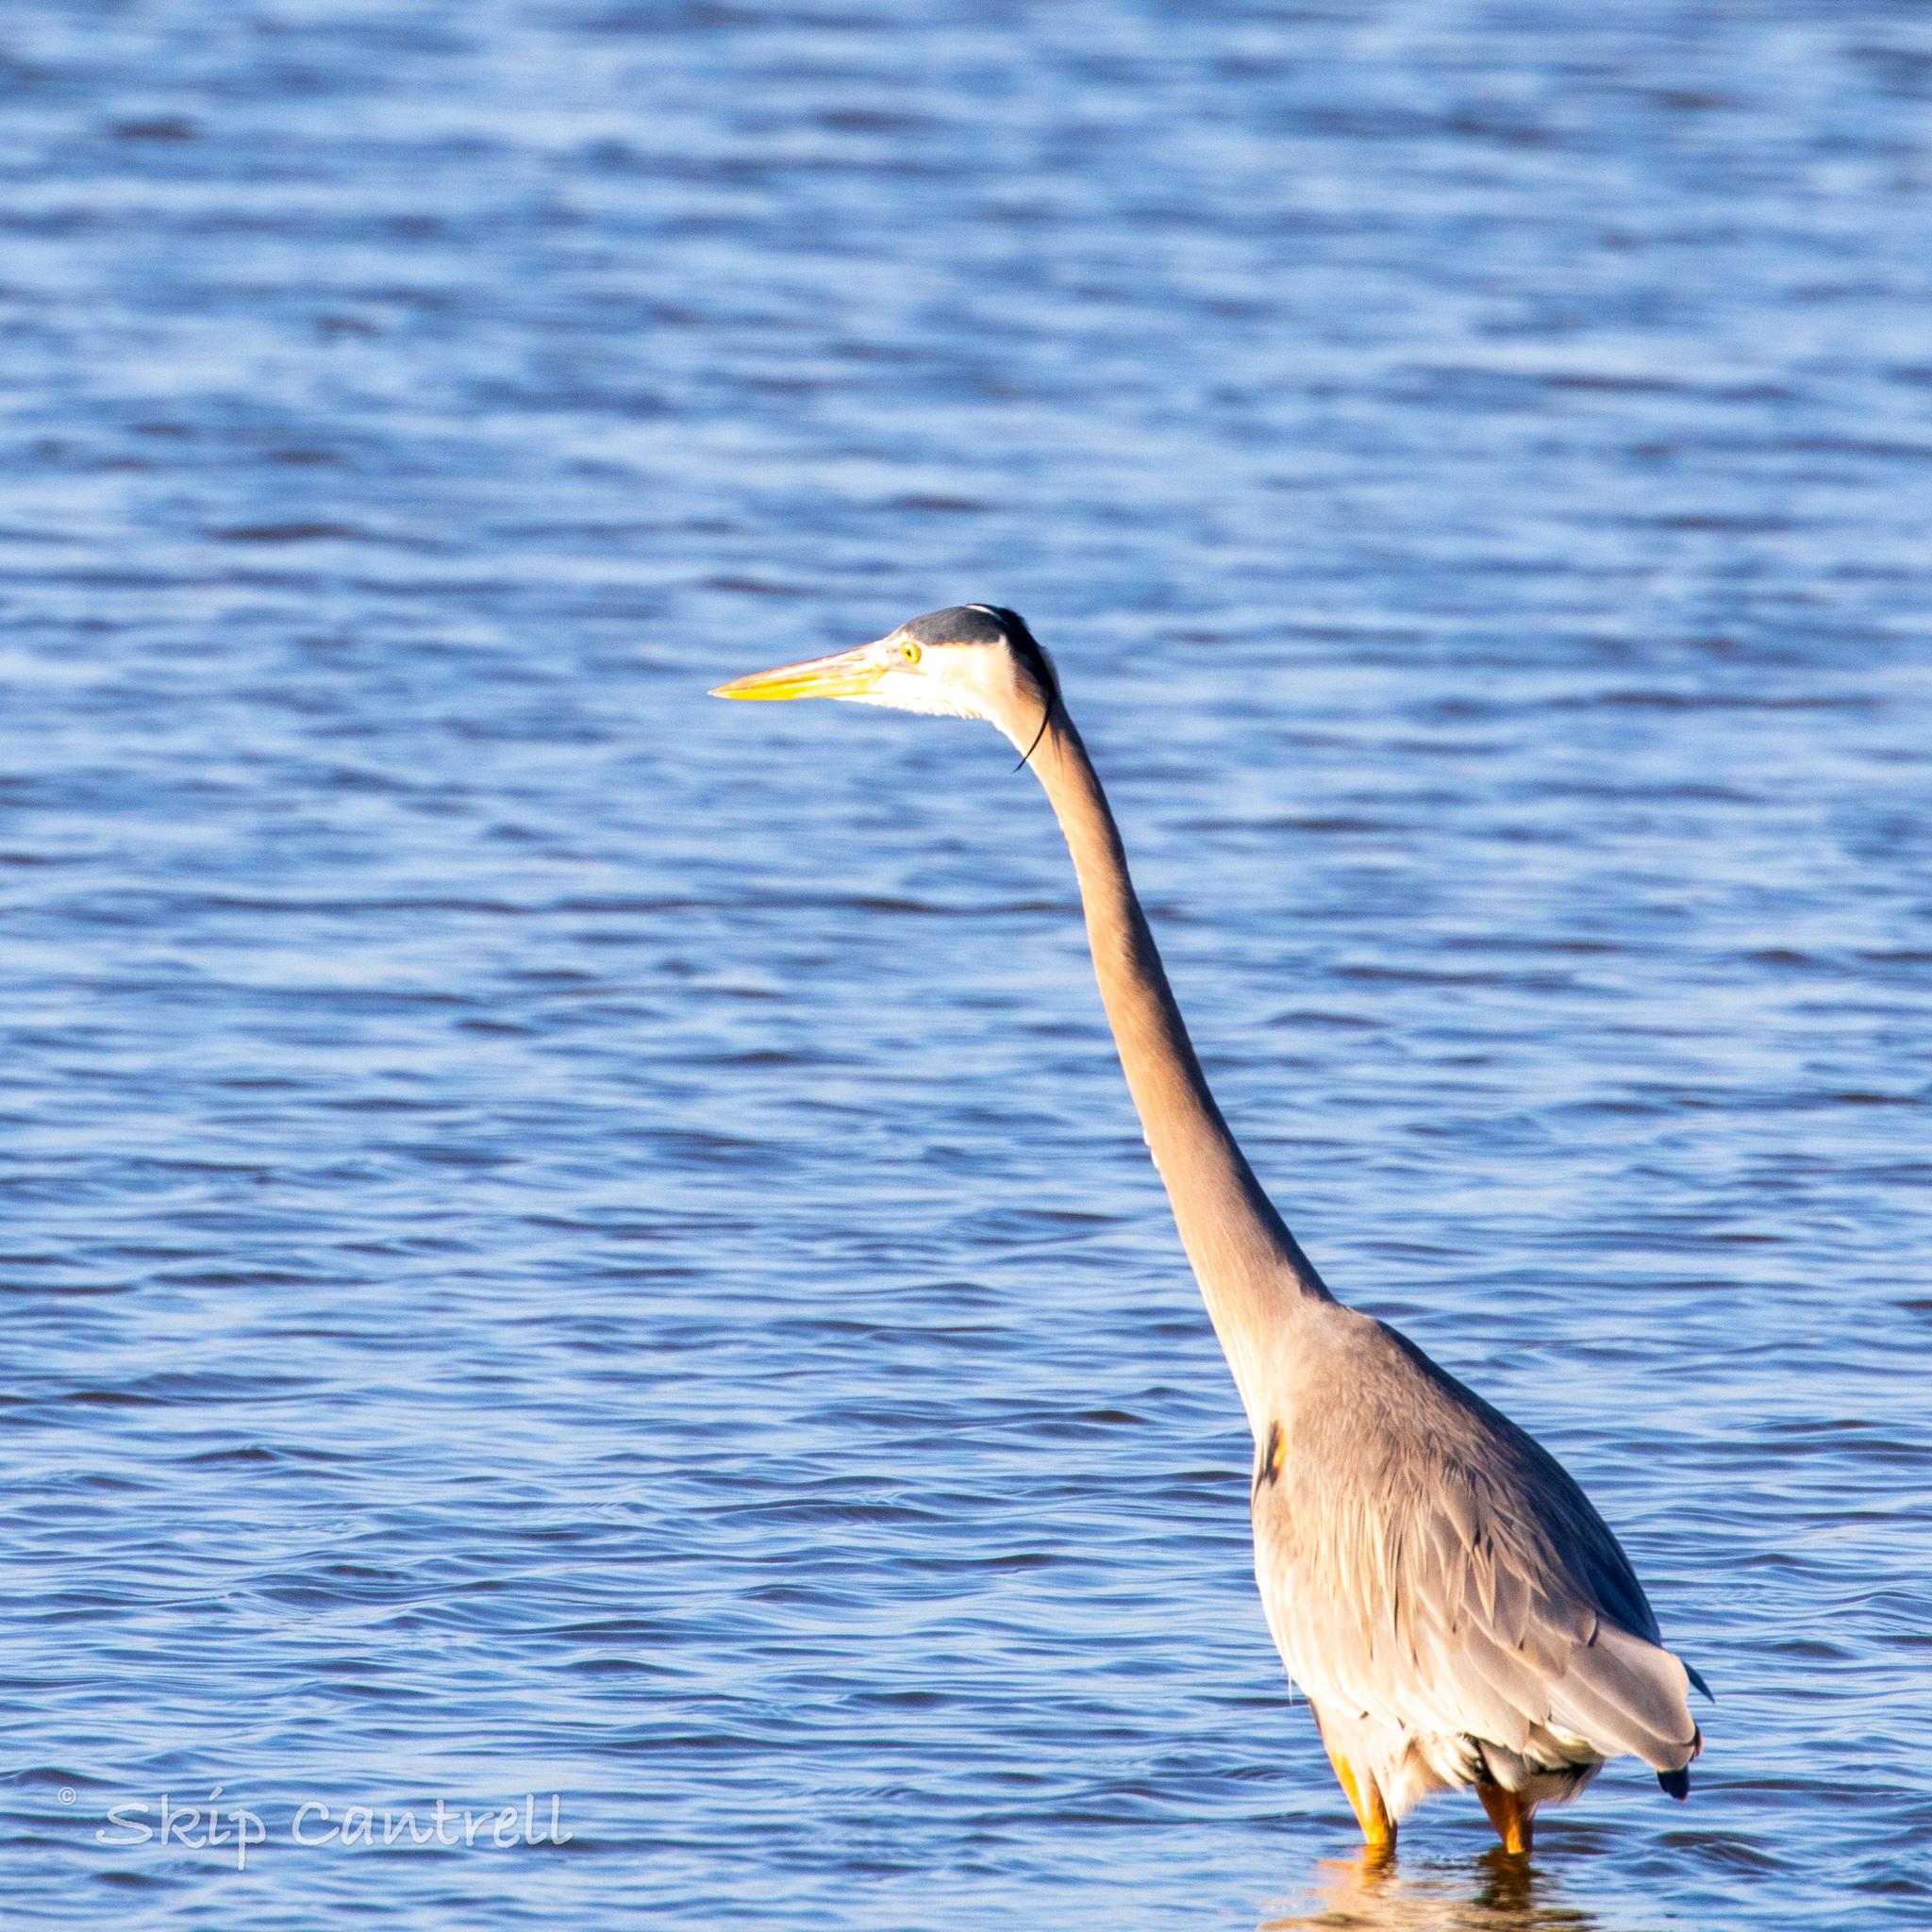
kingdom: Animalia
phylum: Chordata
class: Aves
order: Pelecaniformes
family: Ardeidae
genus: Ardea
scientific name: Ardea herodias
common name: Great blue heron
